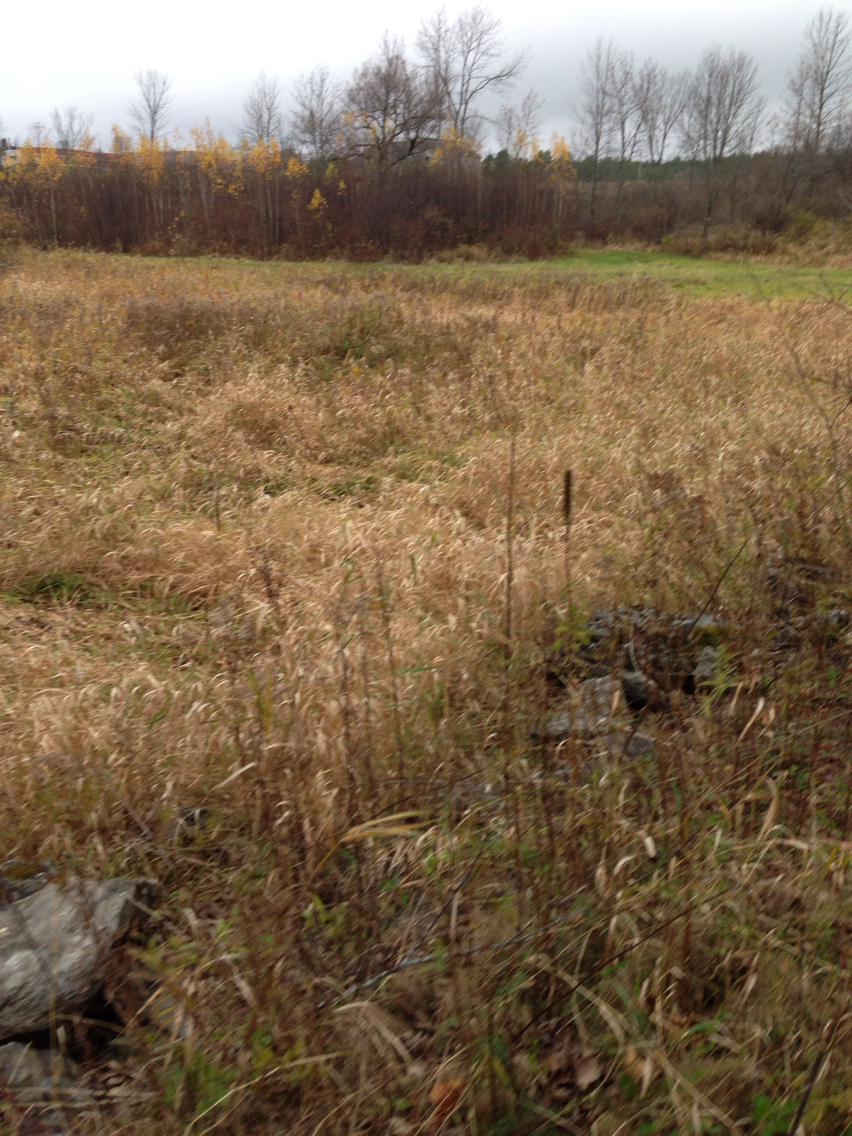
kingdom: Plantae
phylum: Tracheophyta
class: Liliopsida
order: Poales
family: Poaceae
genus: Phalaris
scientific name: Phalaris arundinacea
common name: Reed canary-grass
